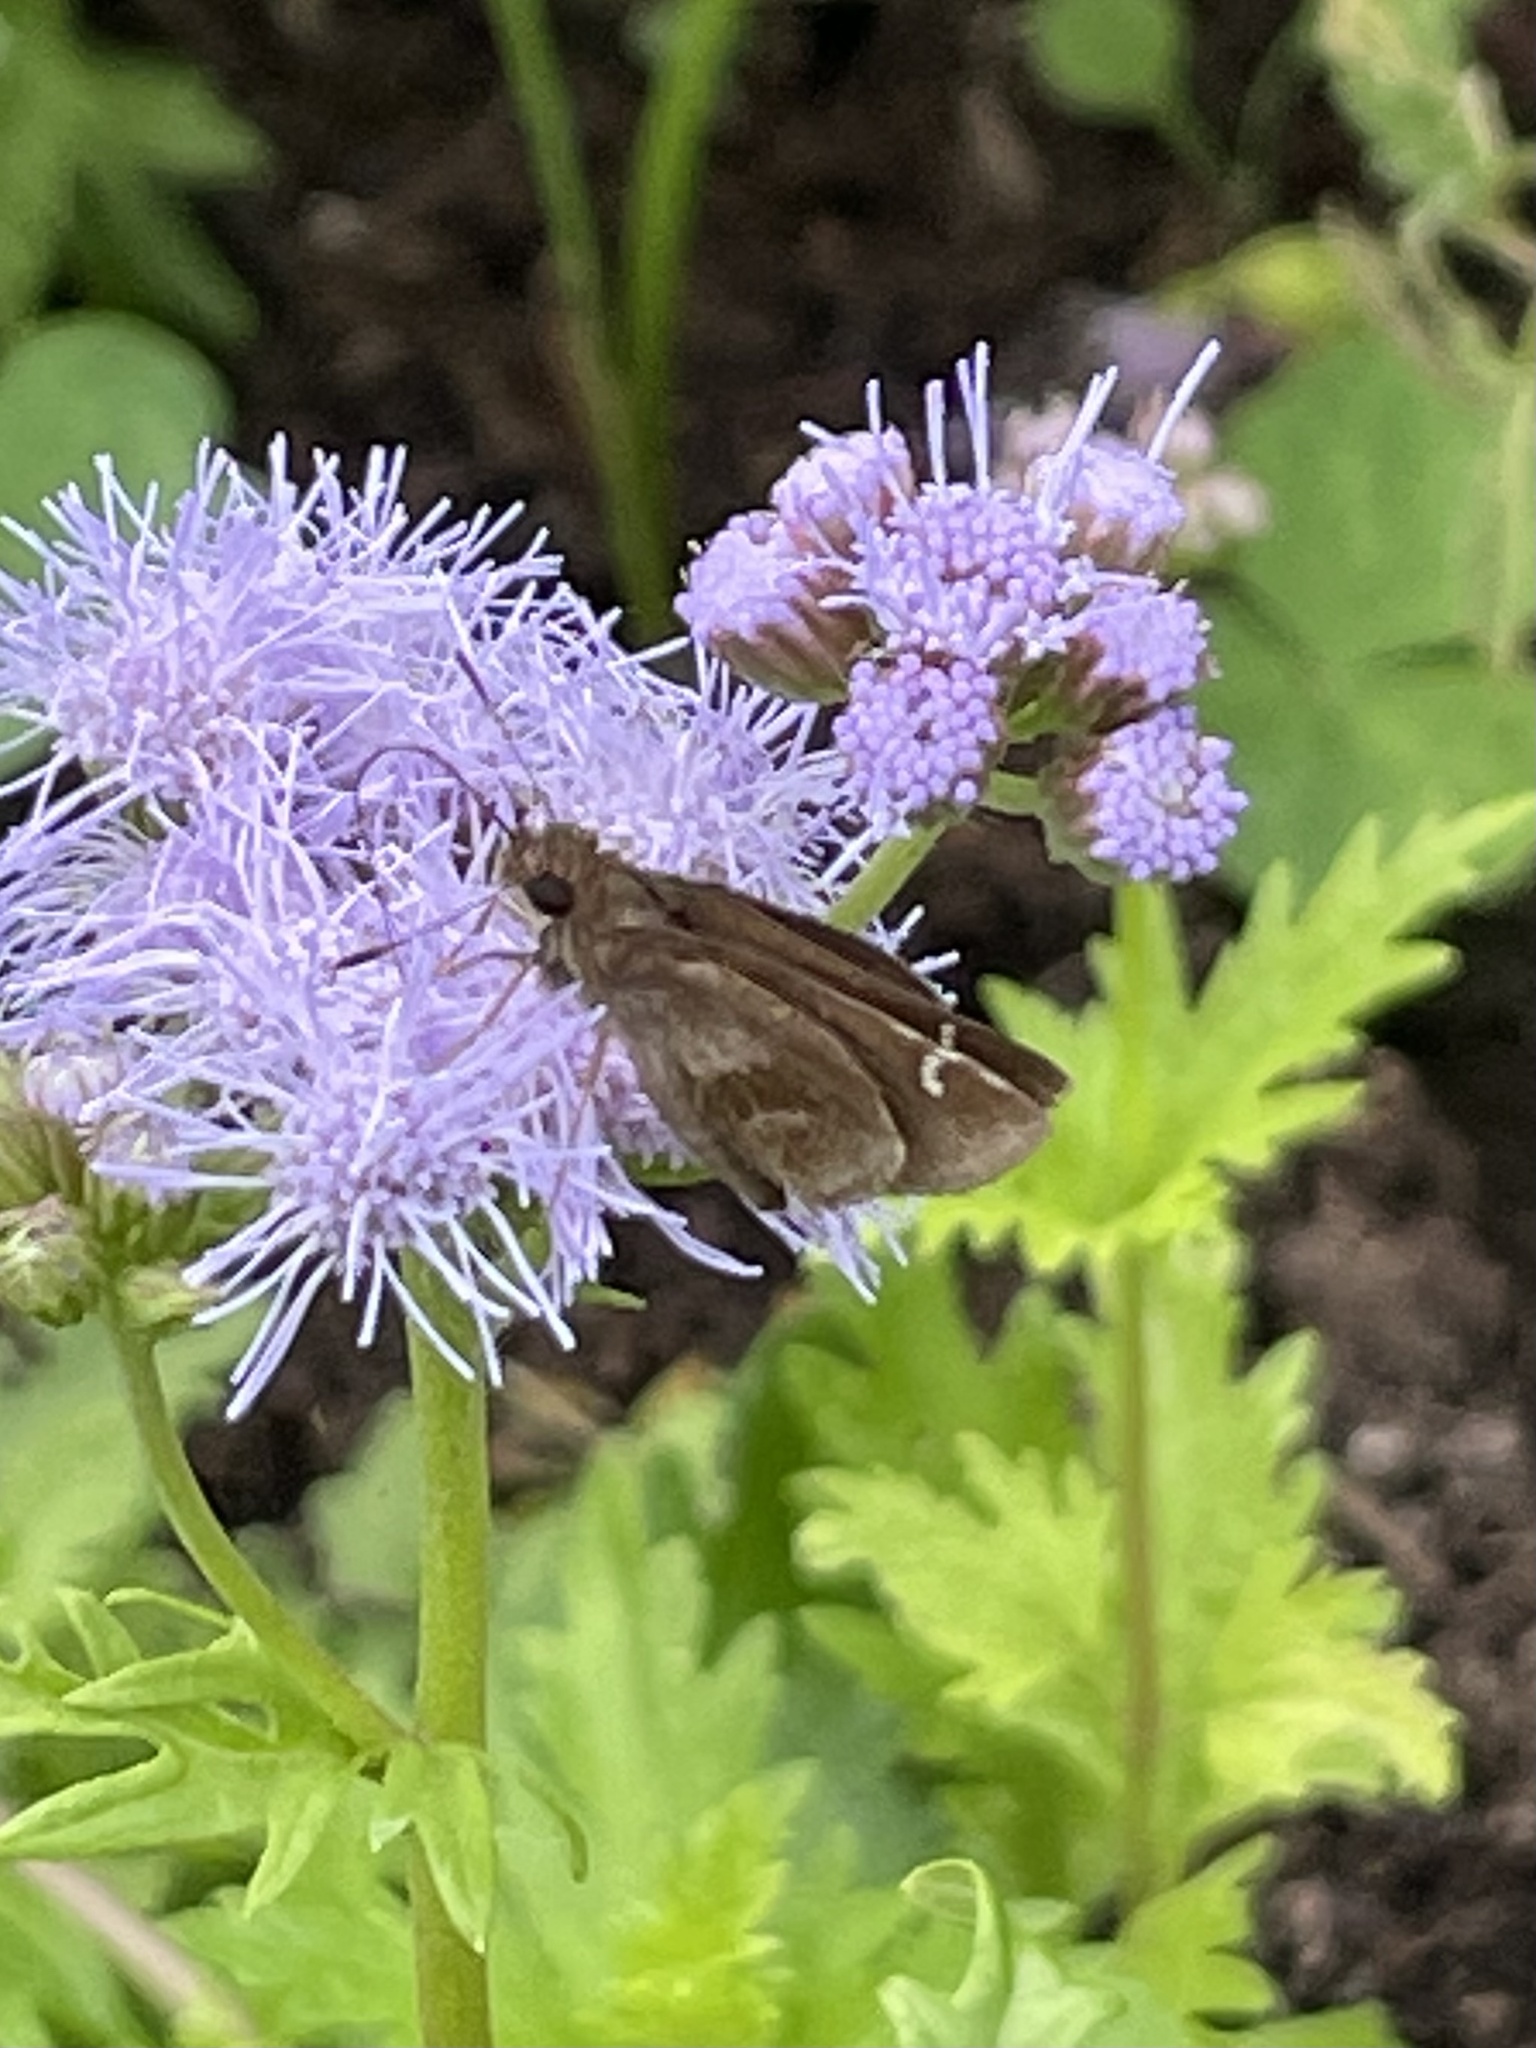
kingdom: Animalia
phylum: Arthropoda
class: Insecta
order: Lepidoptera
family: Hesperiidae
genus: Lerema
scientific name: Lerema accius
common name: Clouded skipper
